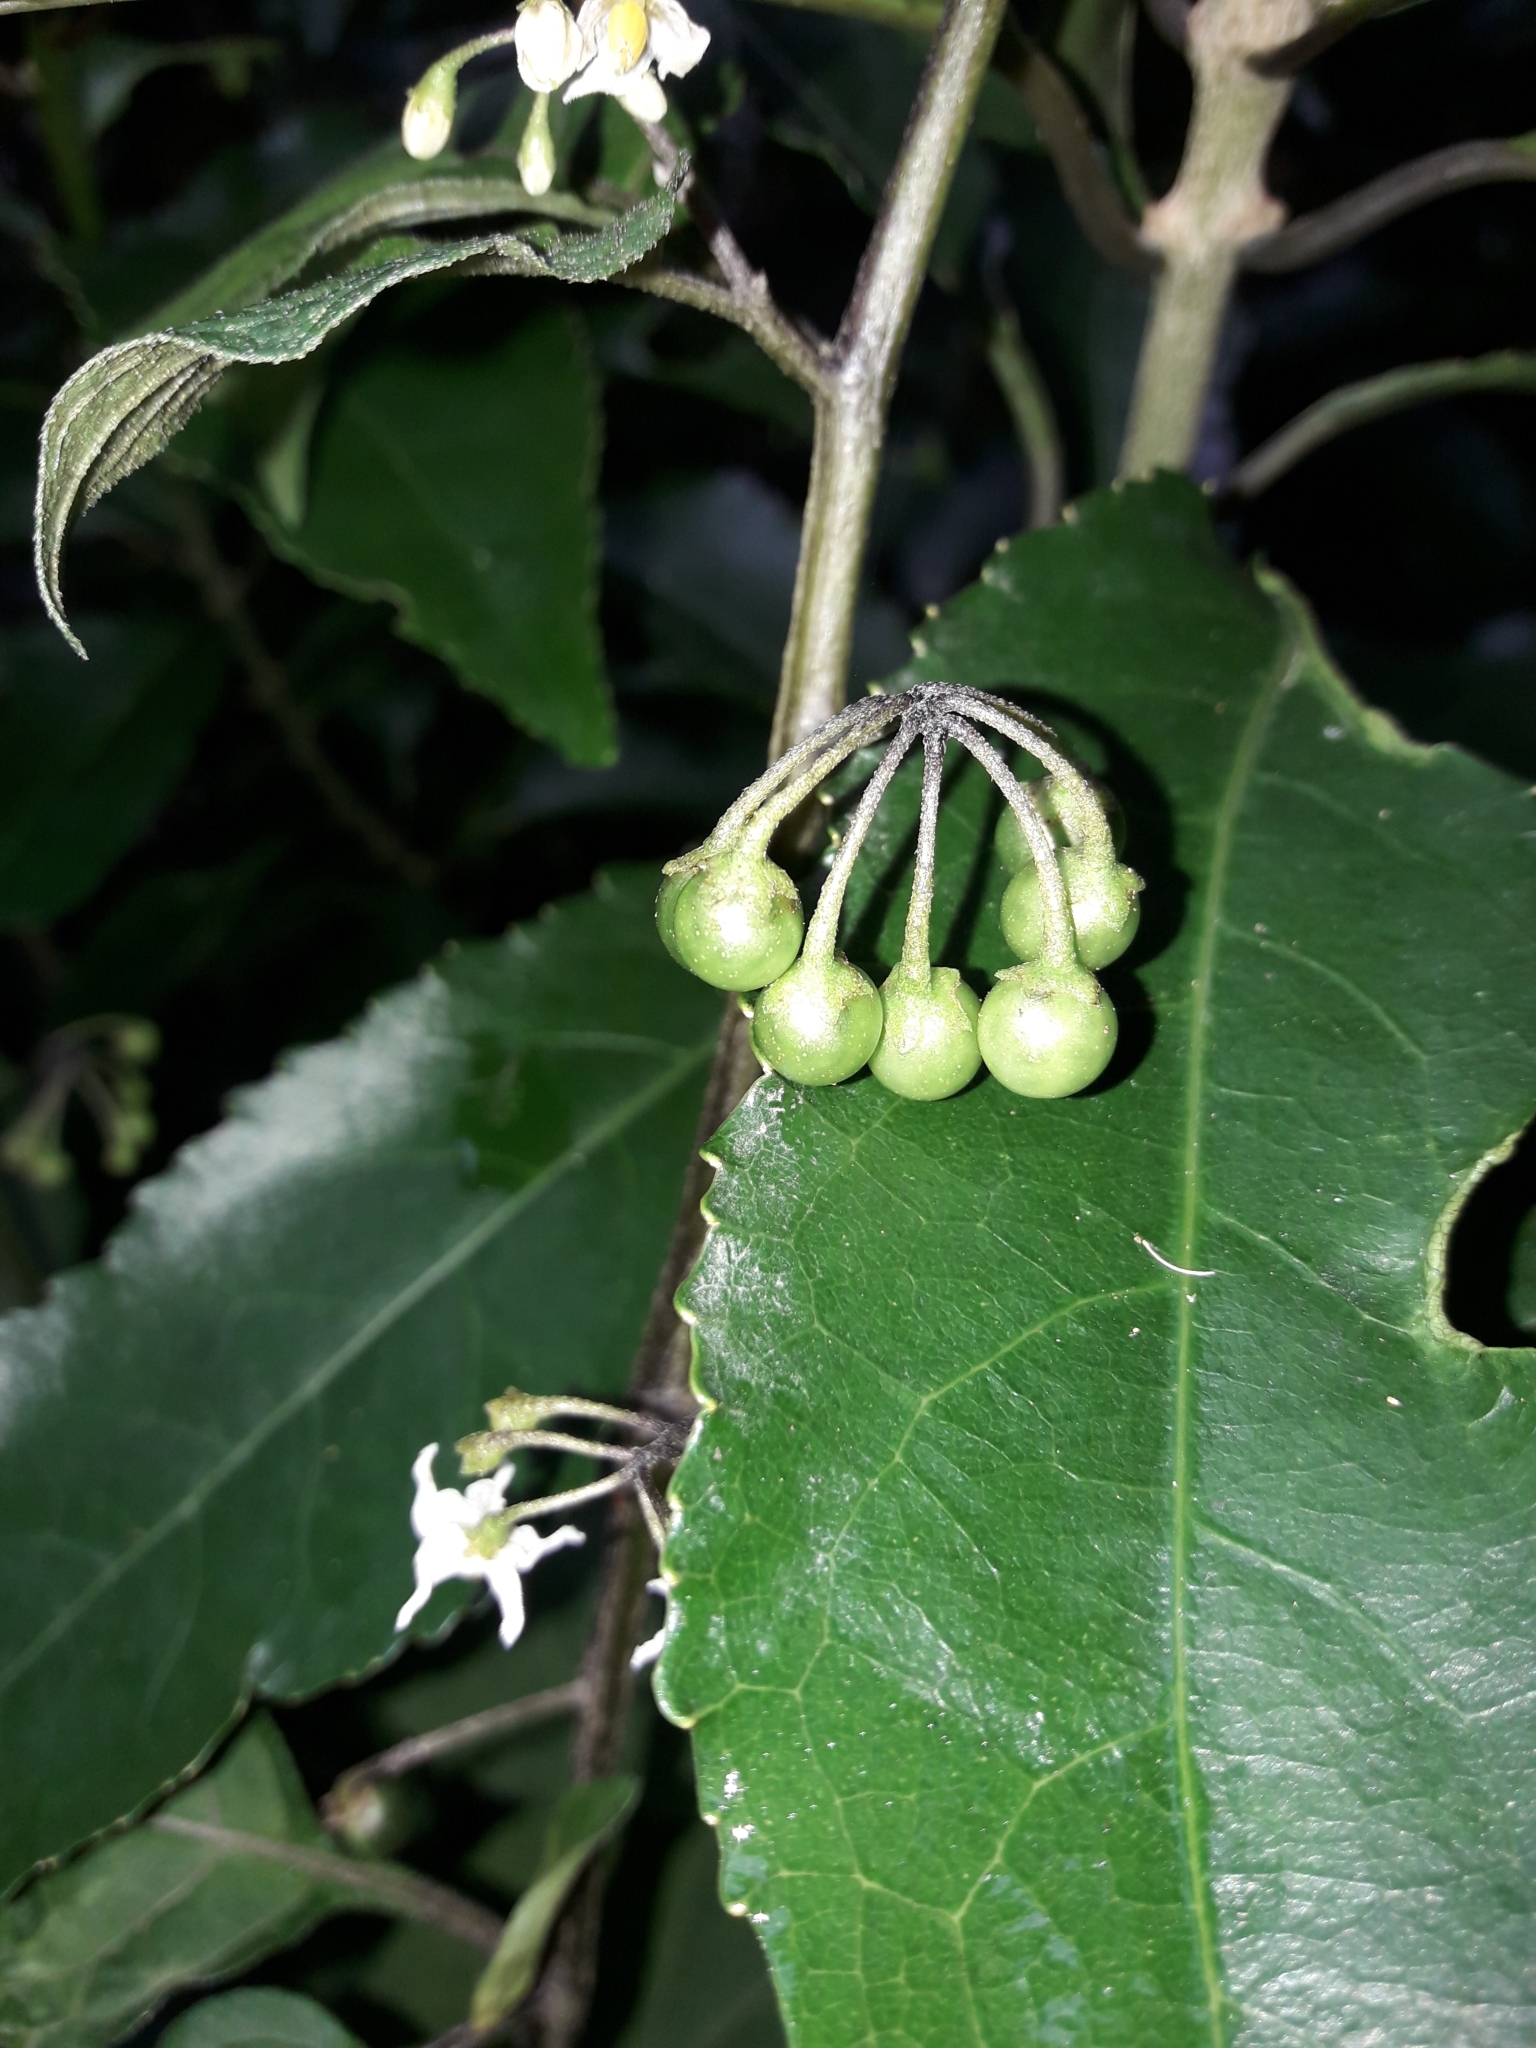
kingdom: Plantae
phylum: Tracheophyta
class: Magnoliopsida
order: Solanales
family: Solanaceae
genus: Solanum
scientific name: Solanum nigrum
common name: Black nightshade
